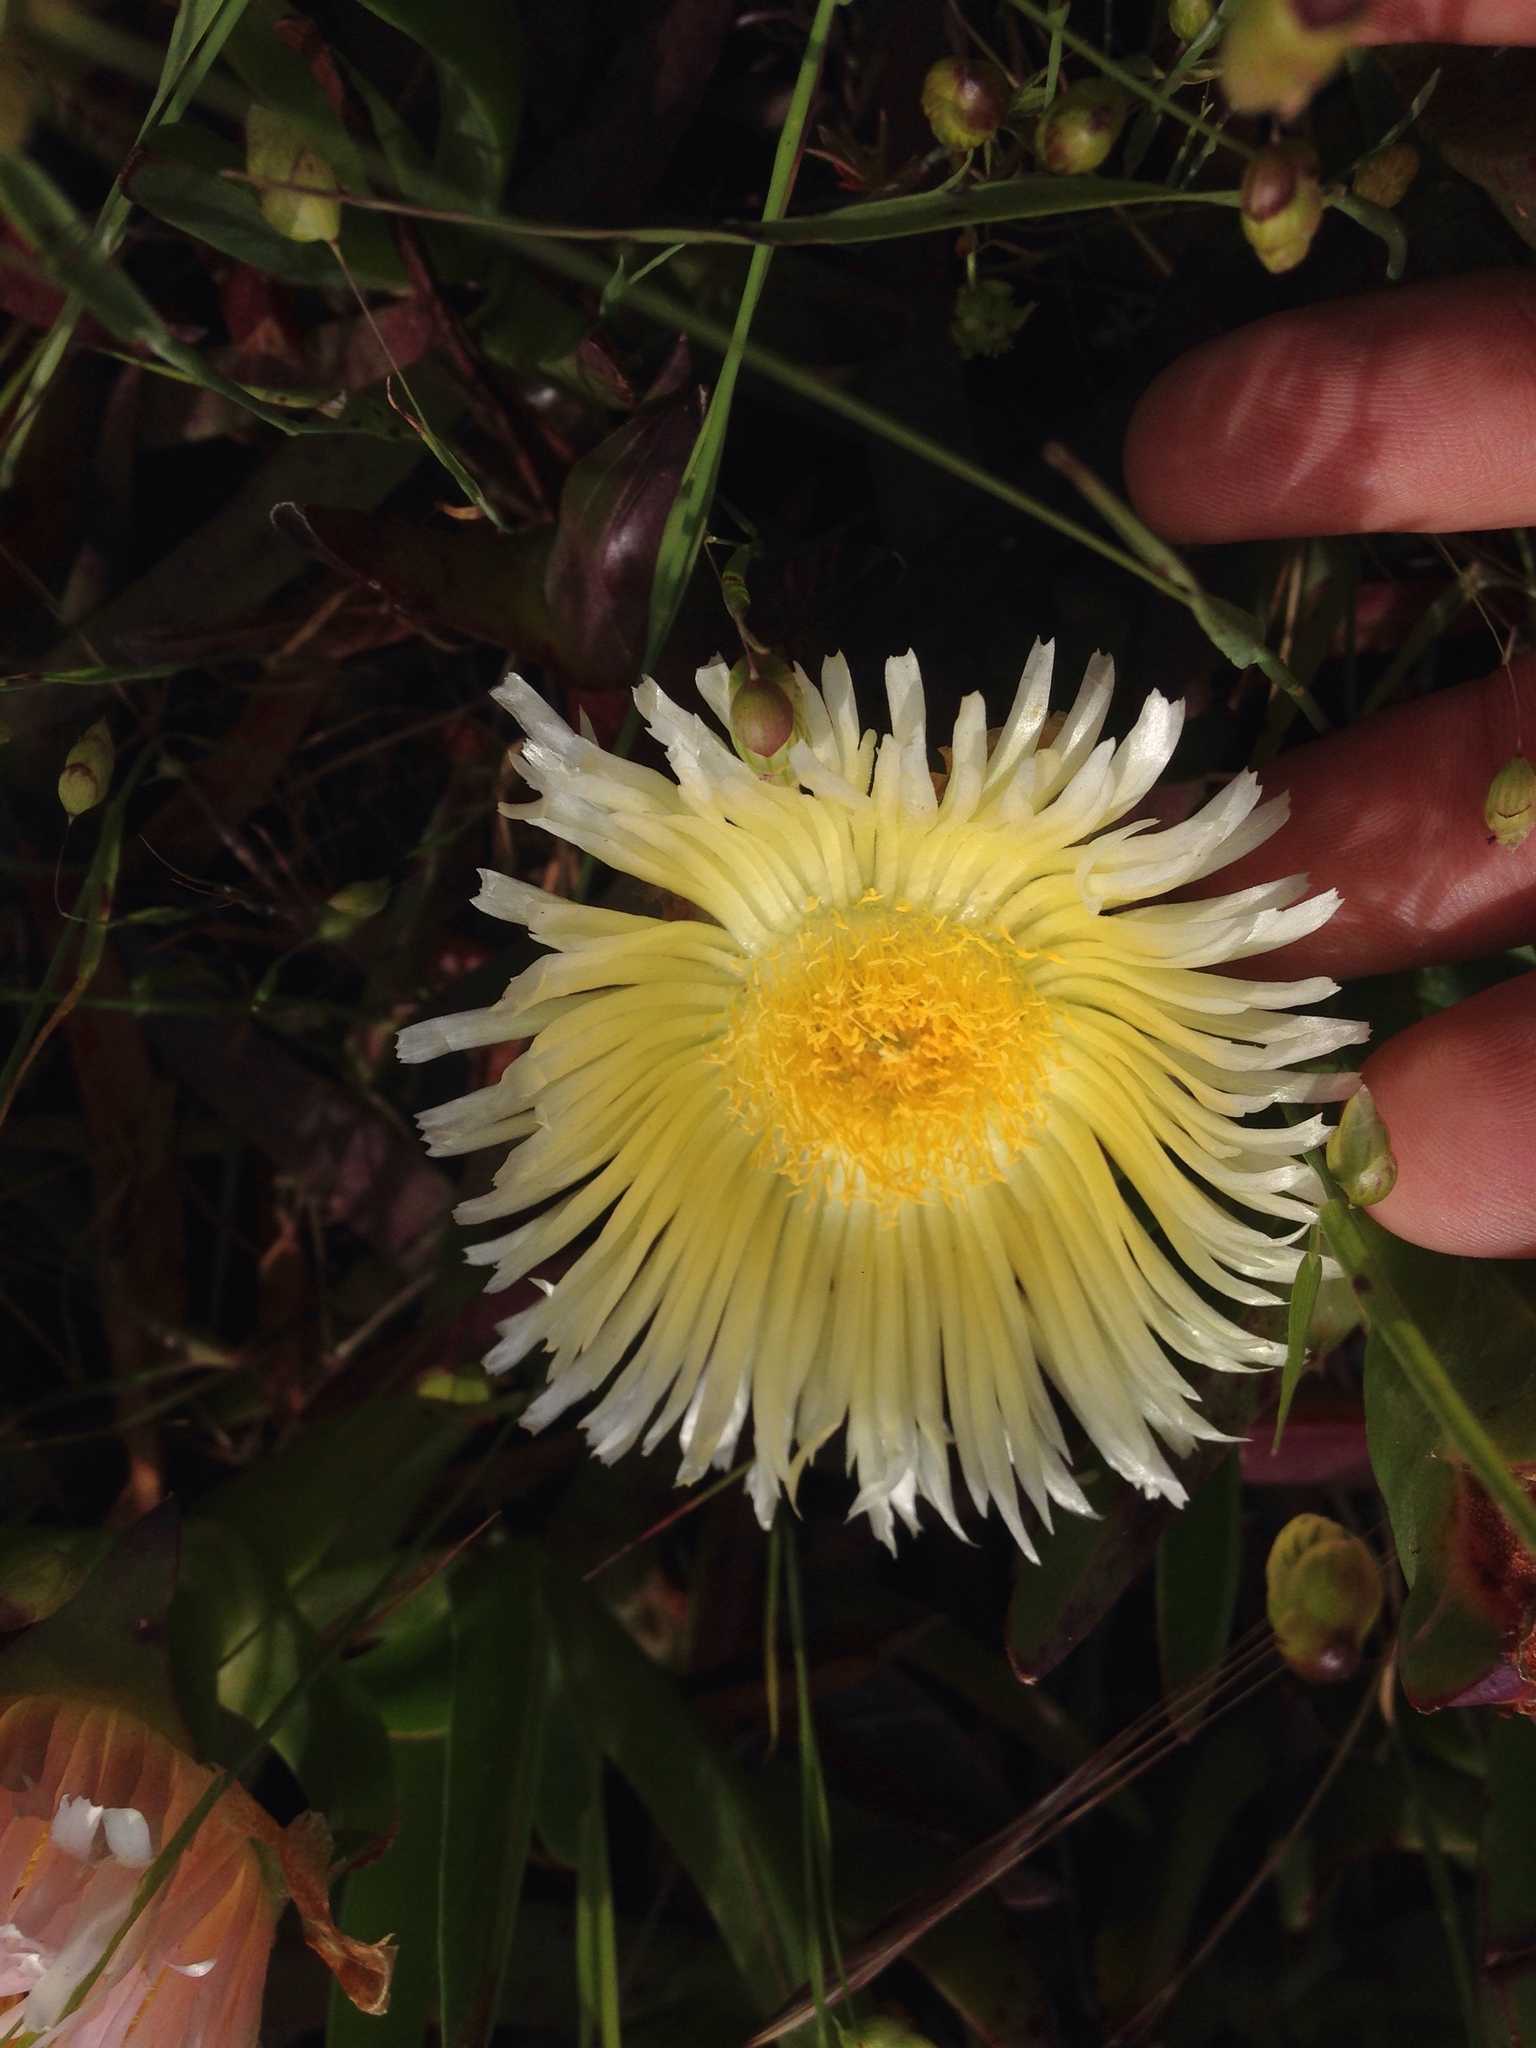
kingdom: Plantae
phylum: Tracheophyta
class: Magnoliopsida
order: Caryophyllales
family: Aizoaceae
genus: Carpobrotus
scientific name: Carpobrotus edulis
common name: Hottentot-fig
